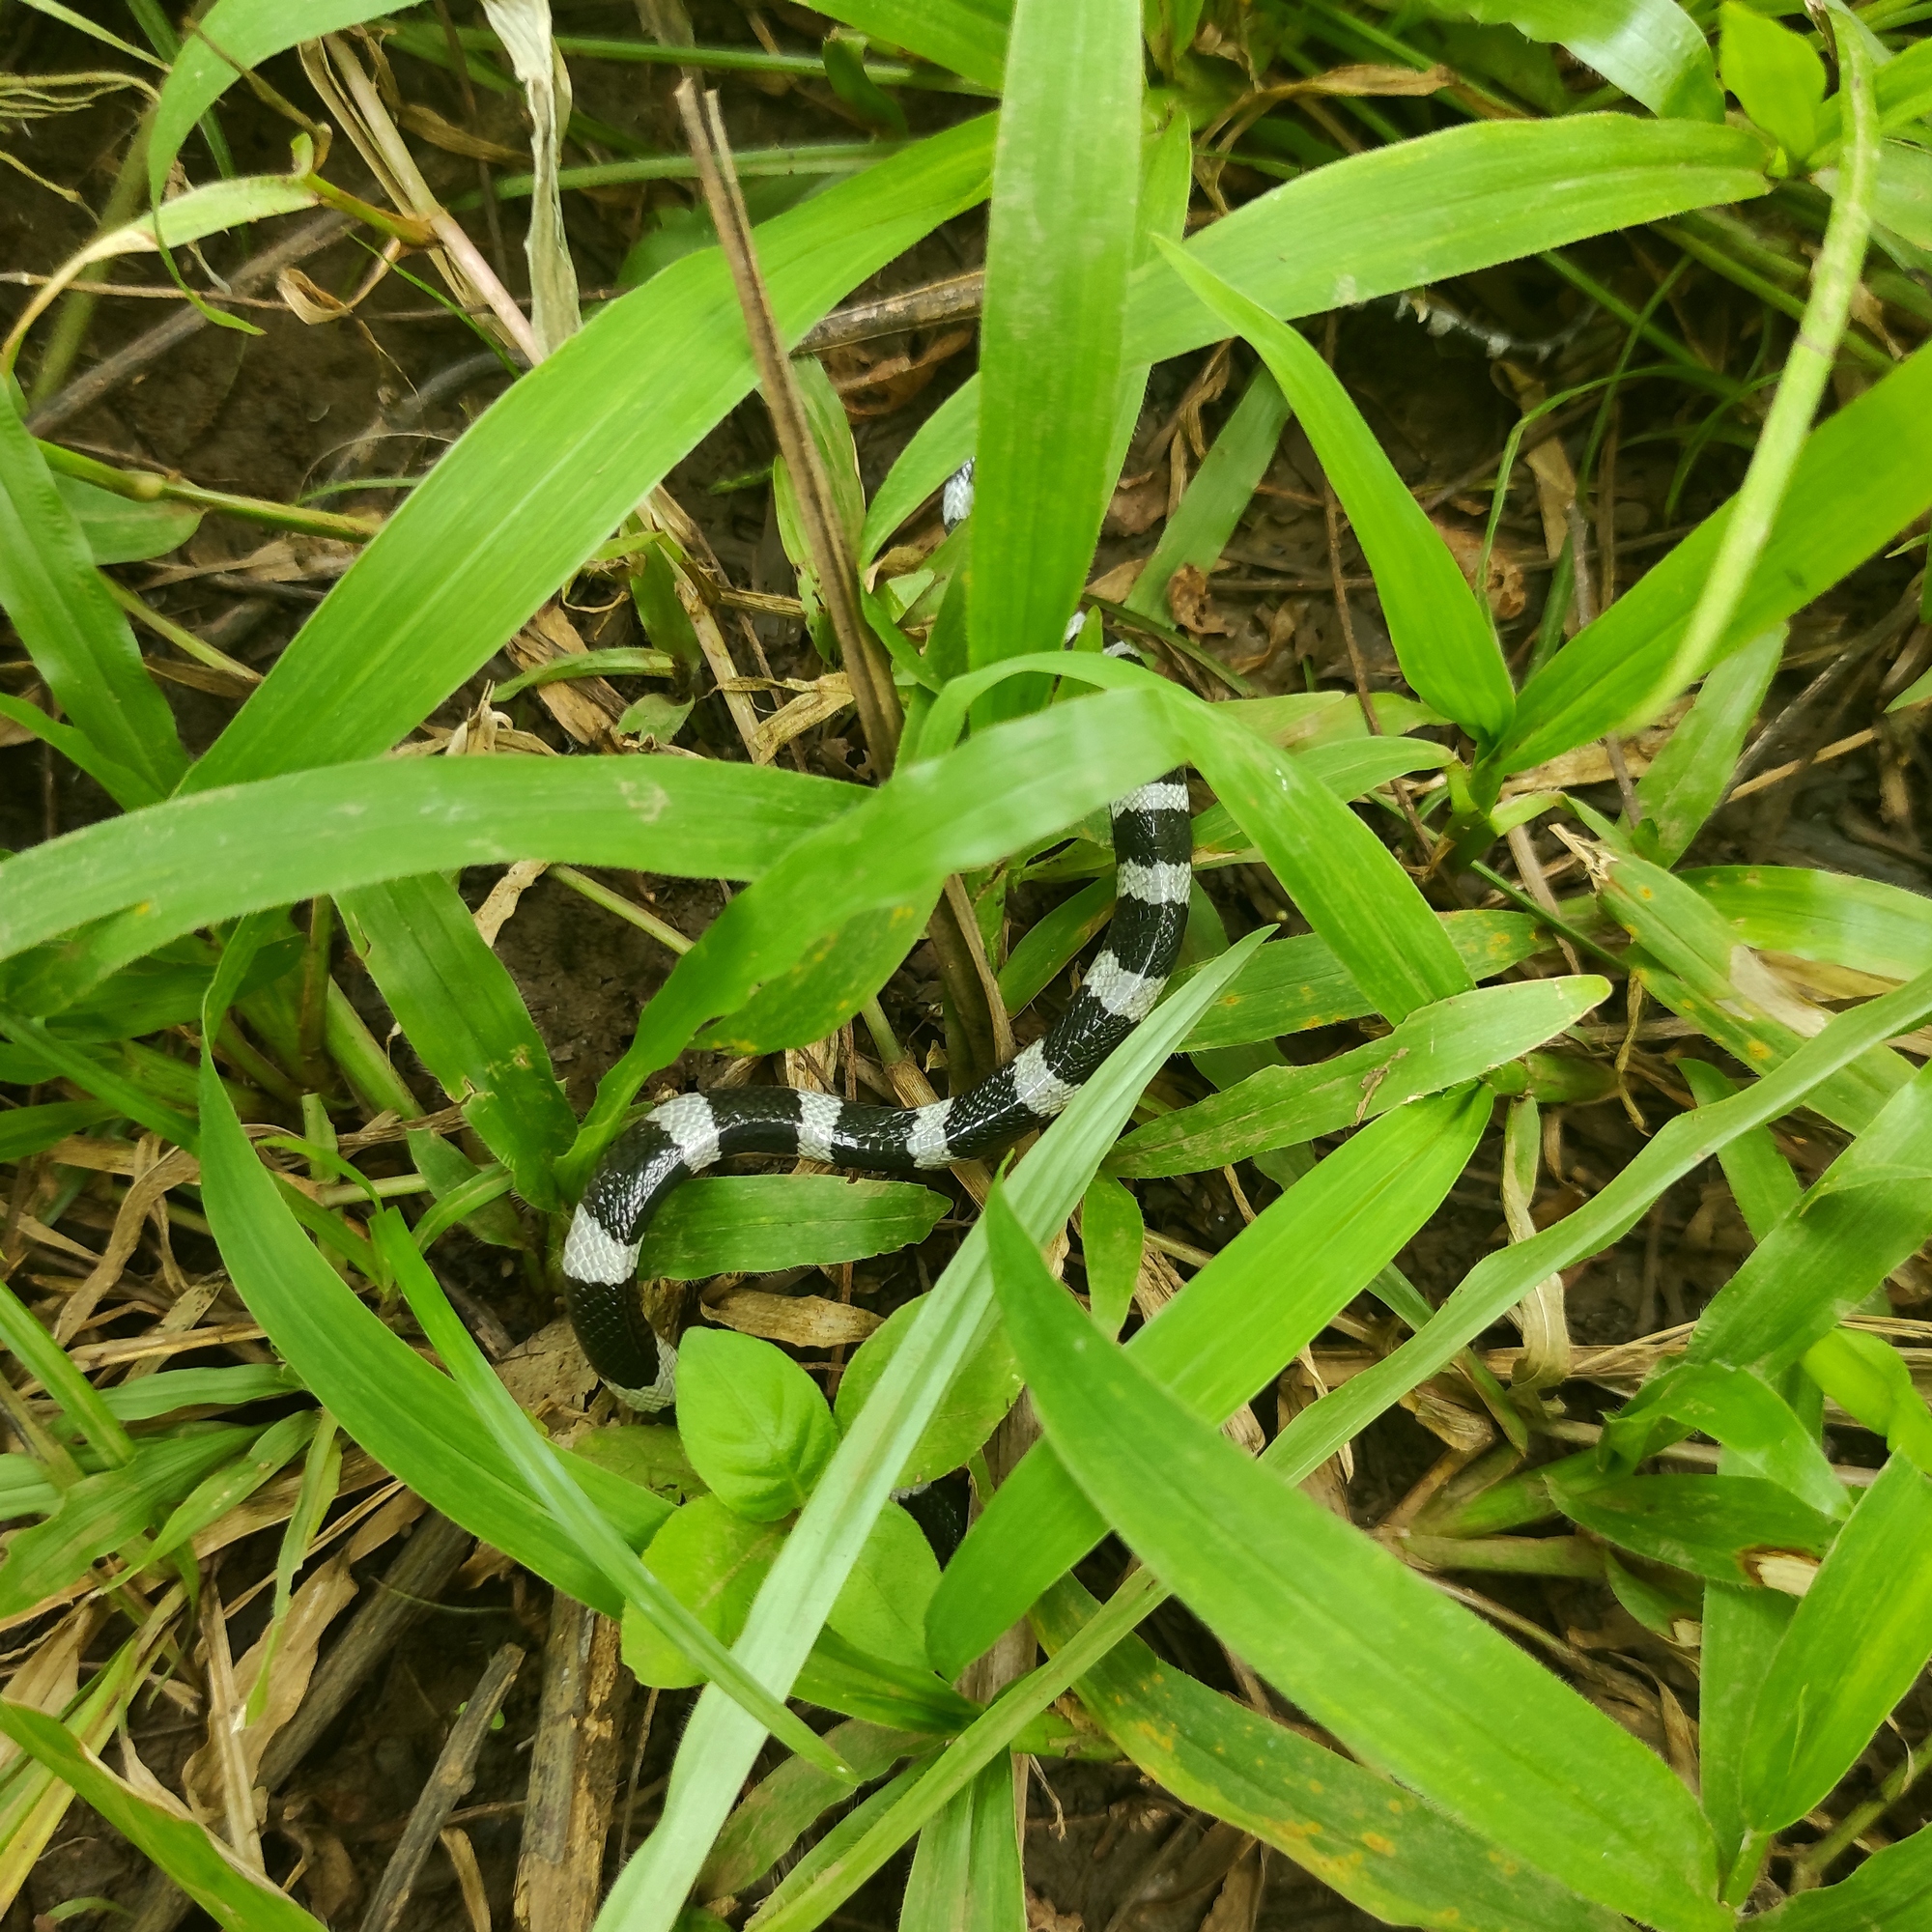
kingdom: Animalia
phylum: Chordata
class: Squamata
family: Elapidae
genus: Bungarus
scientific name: Bungarus candidus
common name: Blue krait/malayan krait
